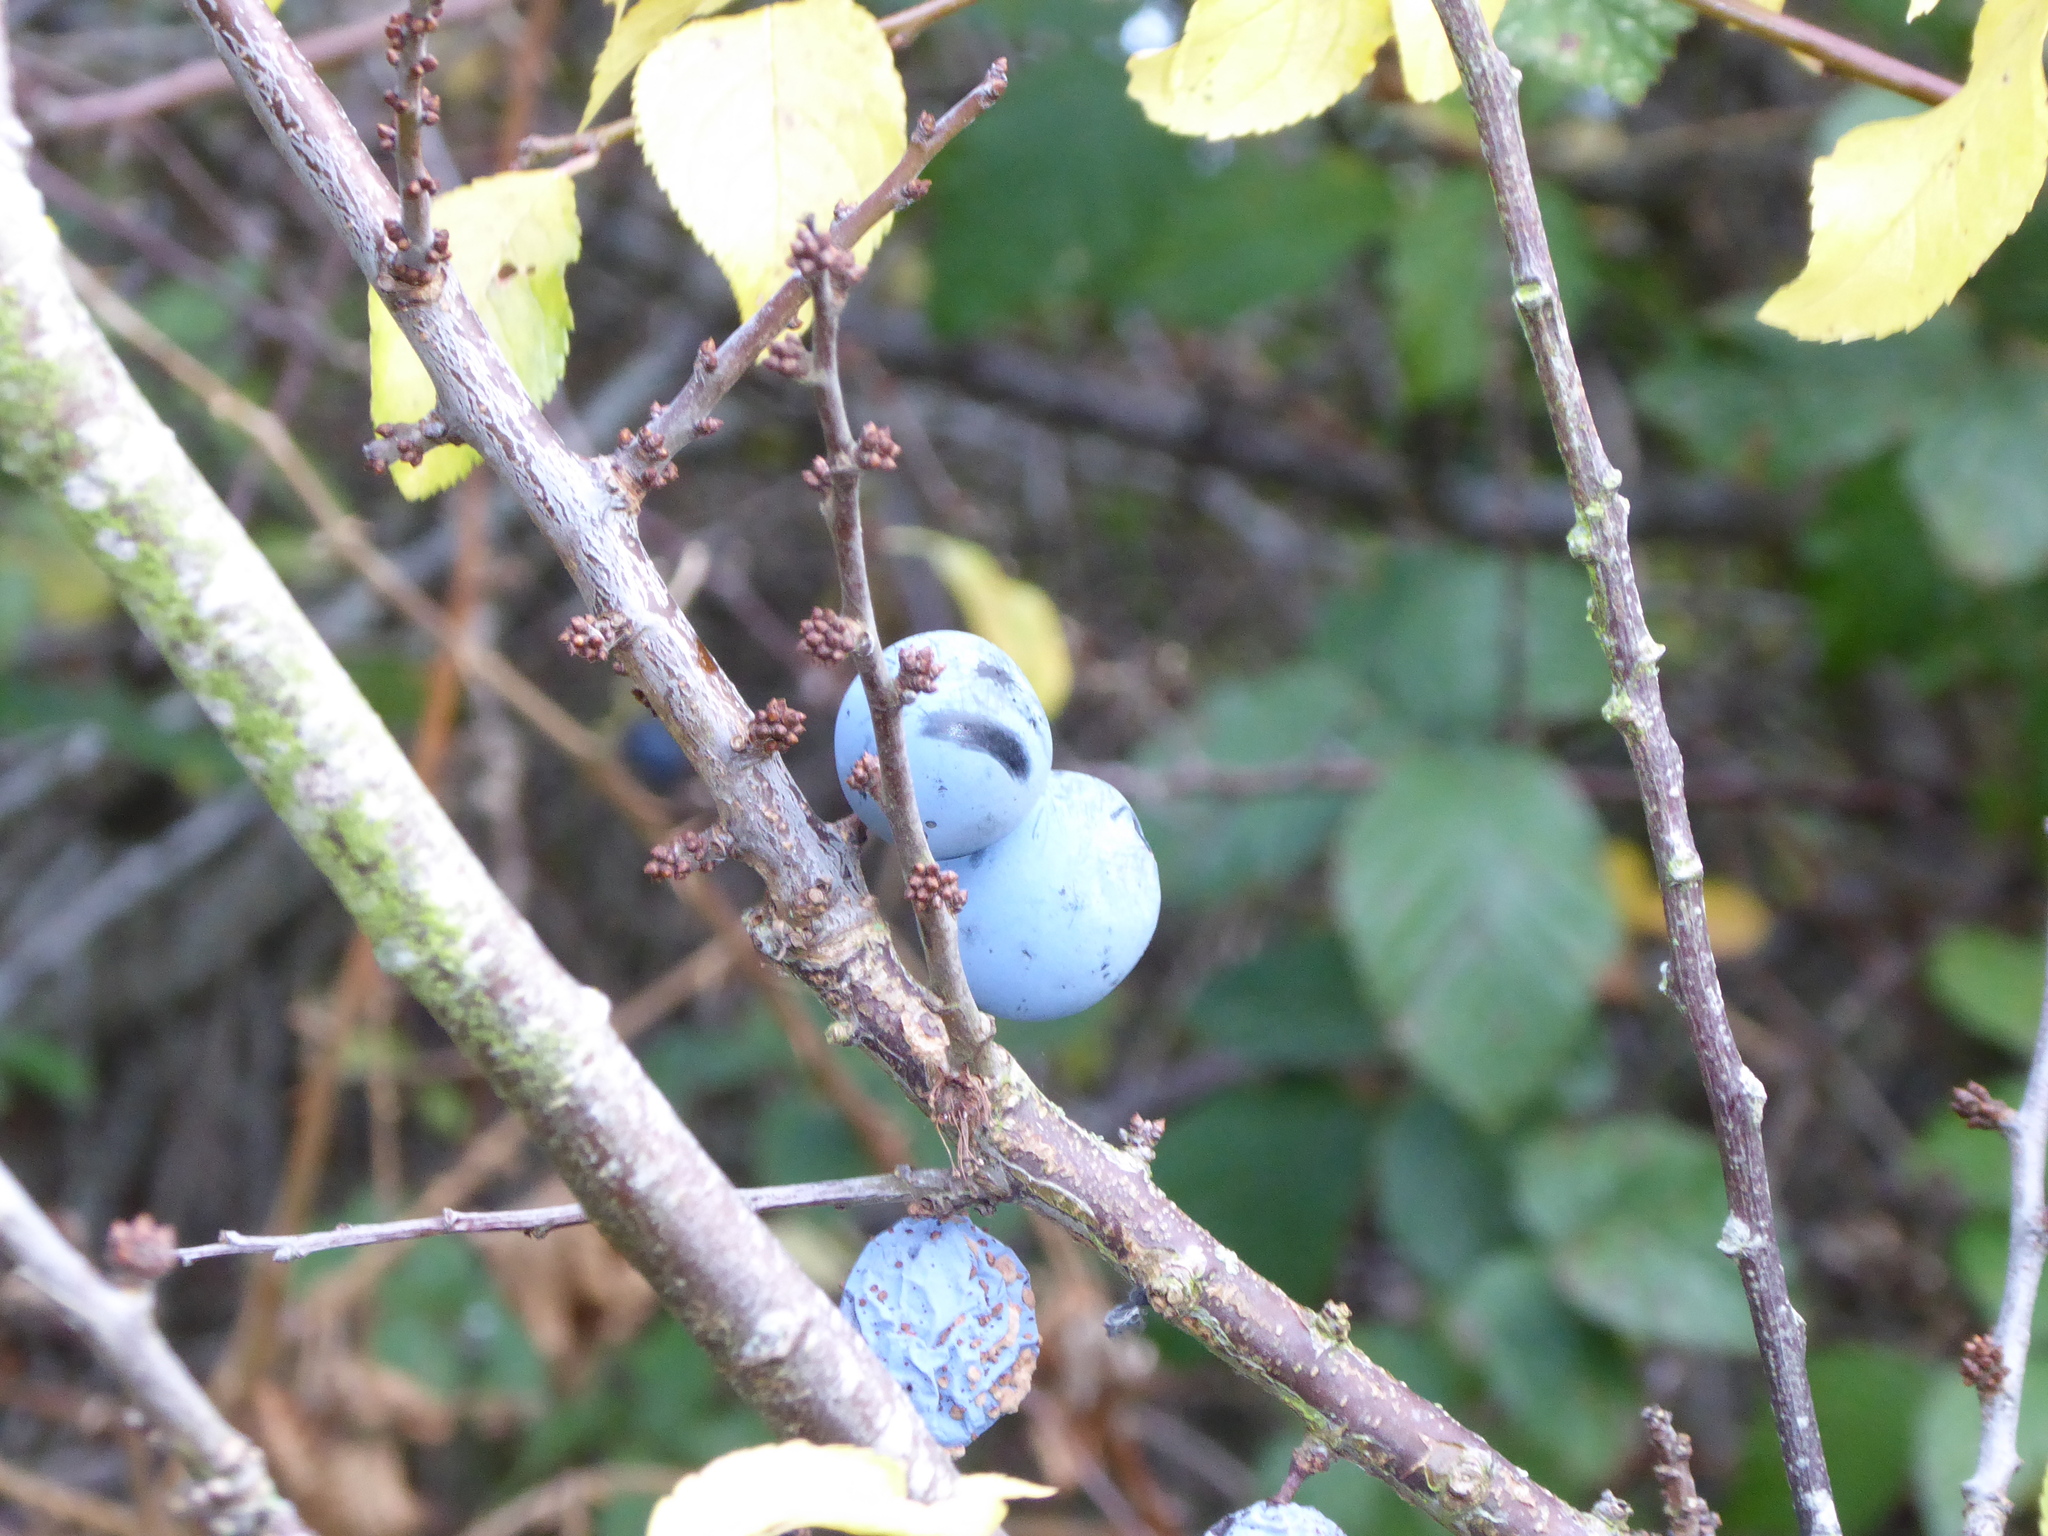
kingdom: Plantae
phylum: Tracheophyta
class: Magnoliopsida
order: Rosales
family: Rosaceae
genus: Prunus
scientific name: Prunus spinosa
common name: Blackthorn
